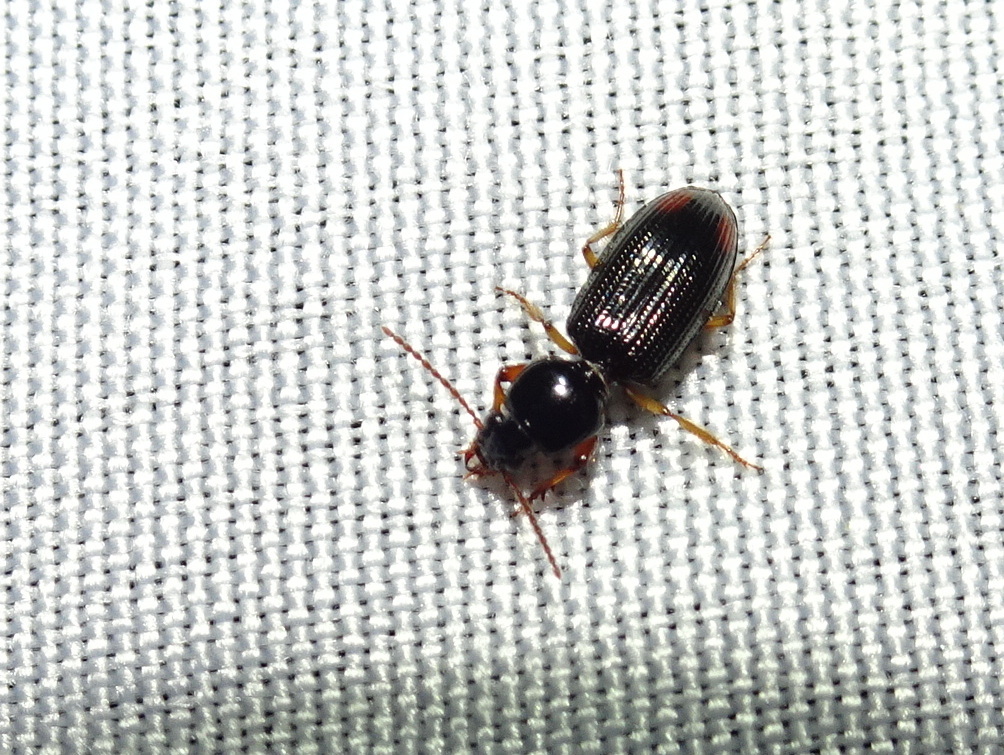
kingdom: Animalia
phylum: Arthropoda
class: Insecta
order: Coleoptera
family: Carabidae
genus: Aspidoglossa
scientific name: Aspidoglossa subangulata
